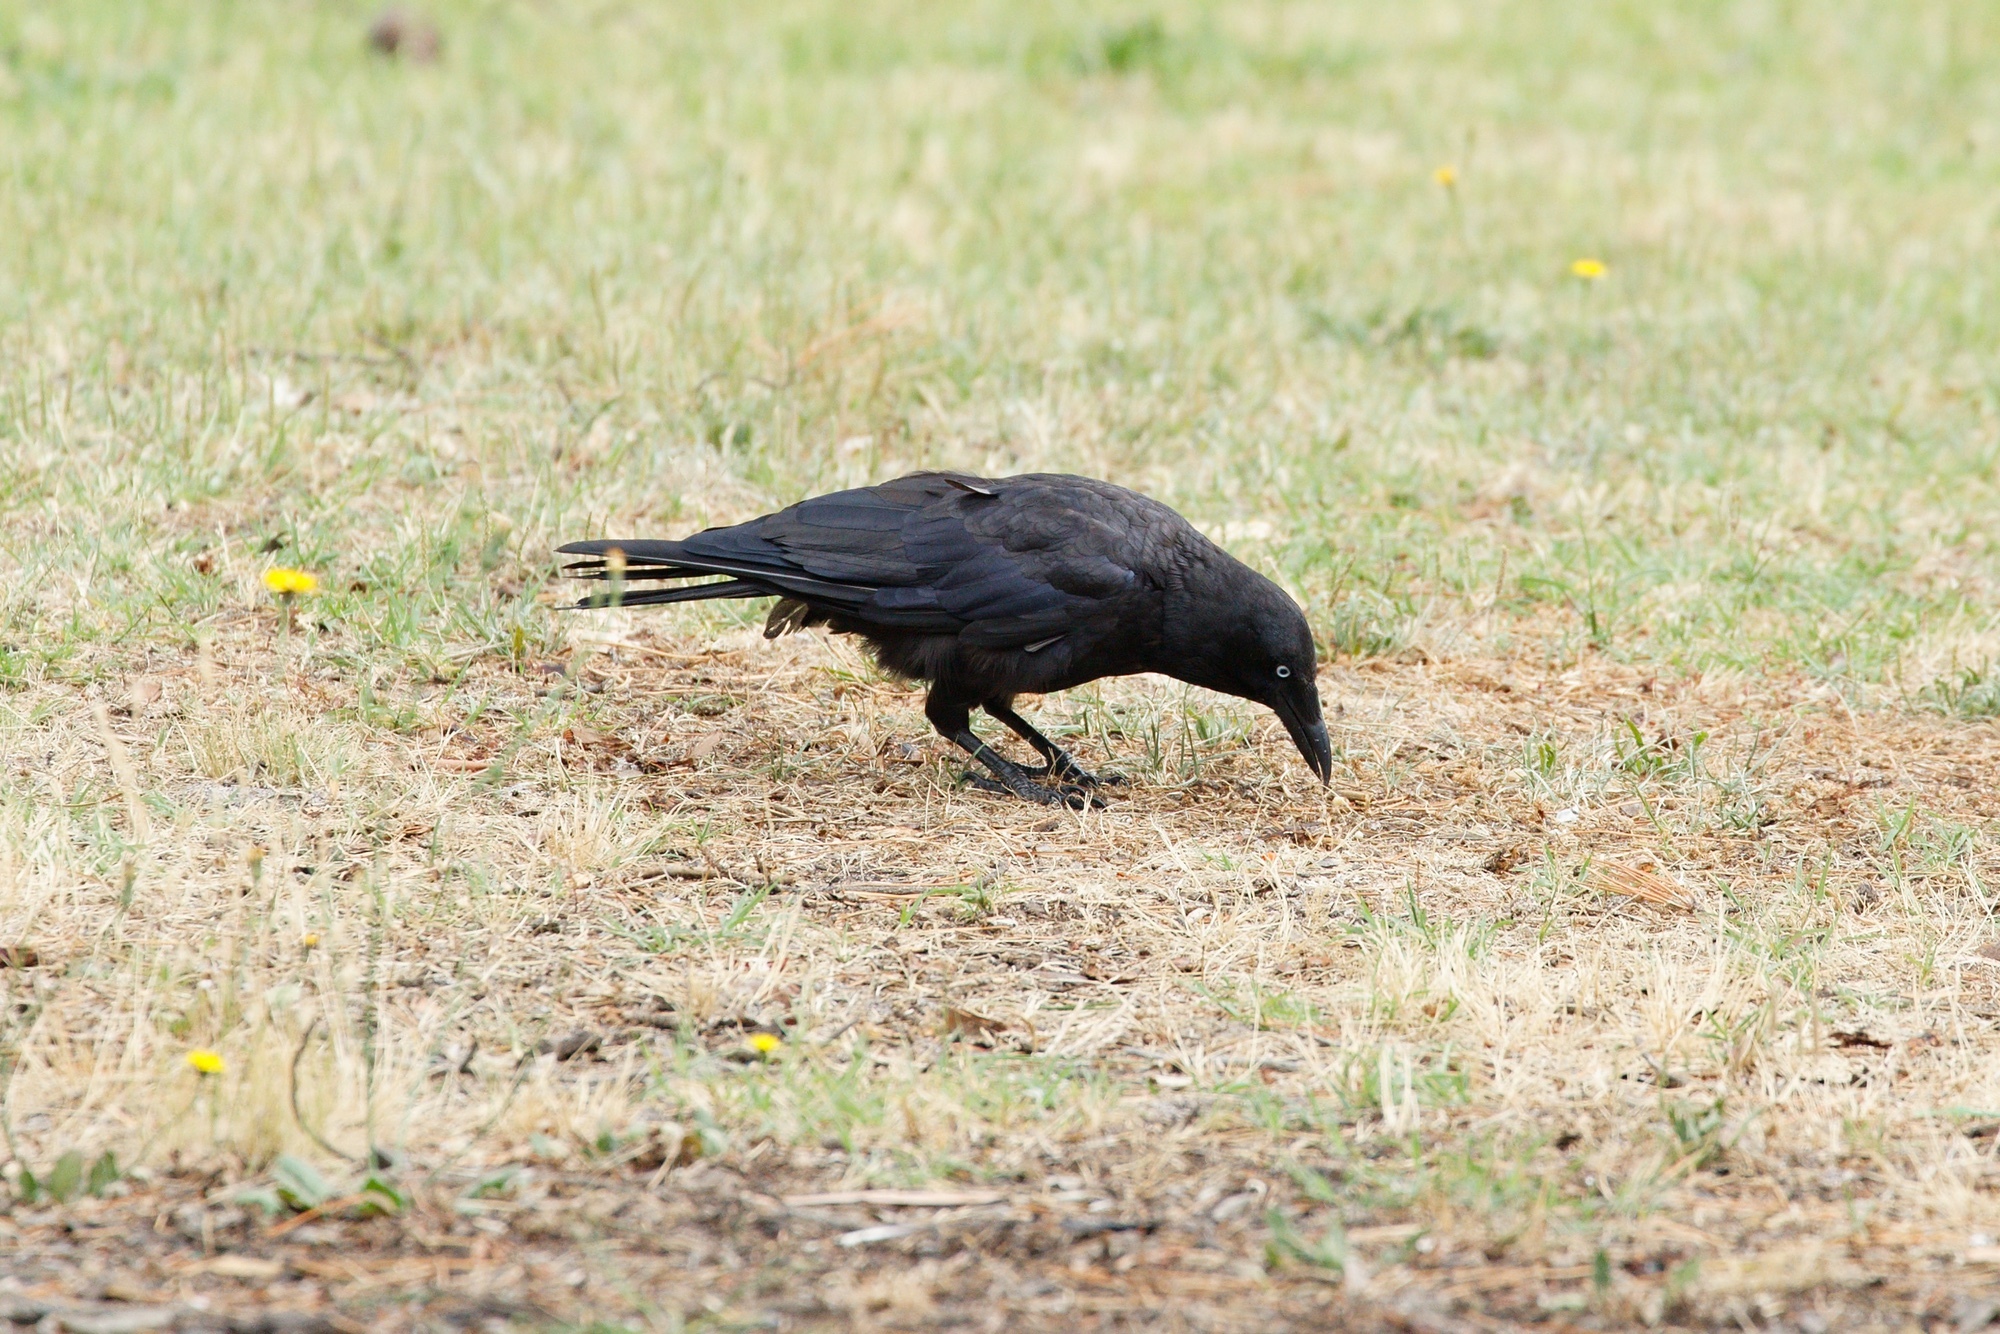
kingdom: Animalia
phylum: Chordata
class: Aves
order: Passeriformes
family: Corvidae
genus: Corvus
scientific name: Corvus mellori
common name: Little raven
